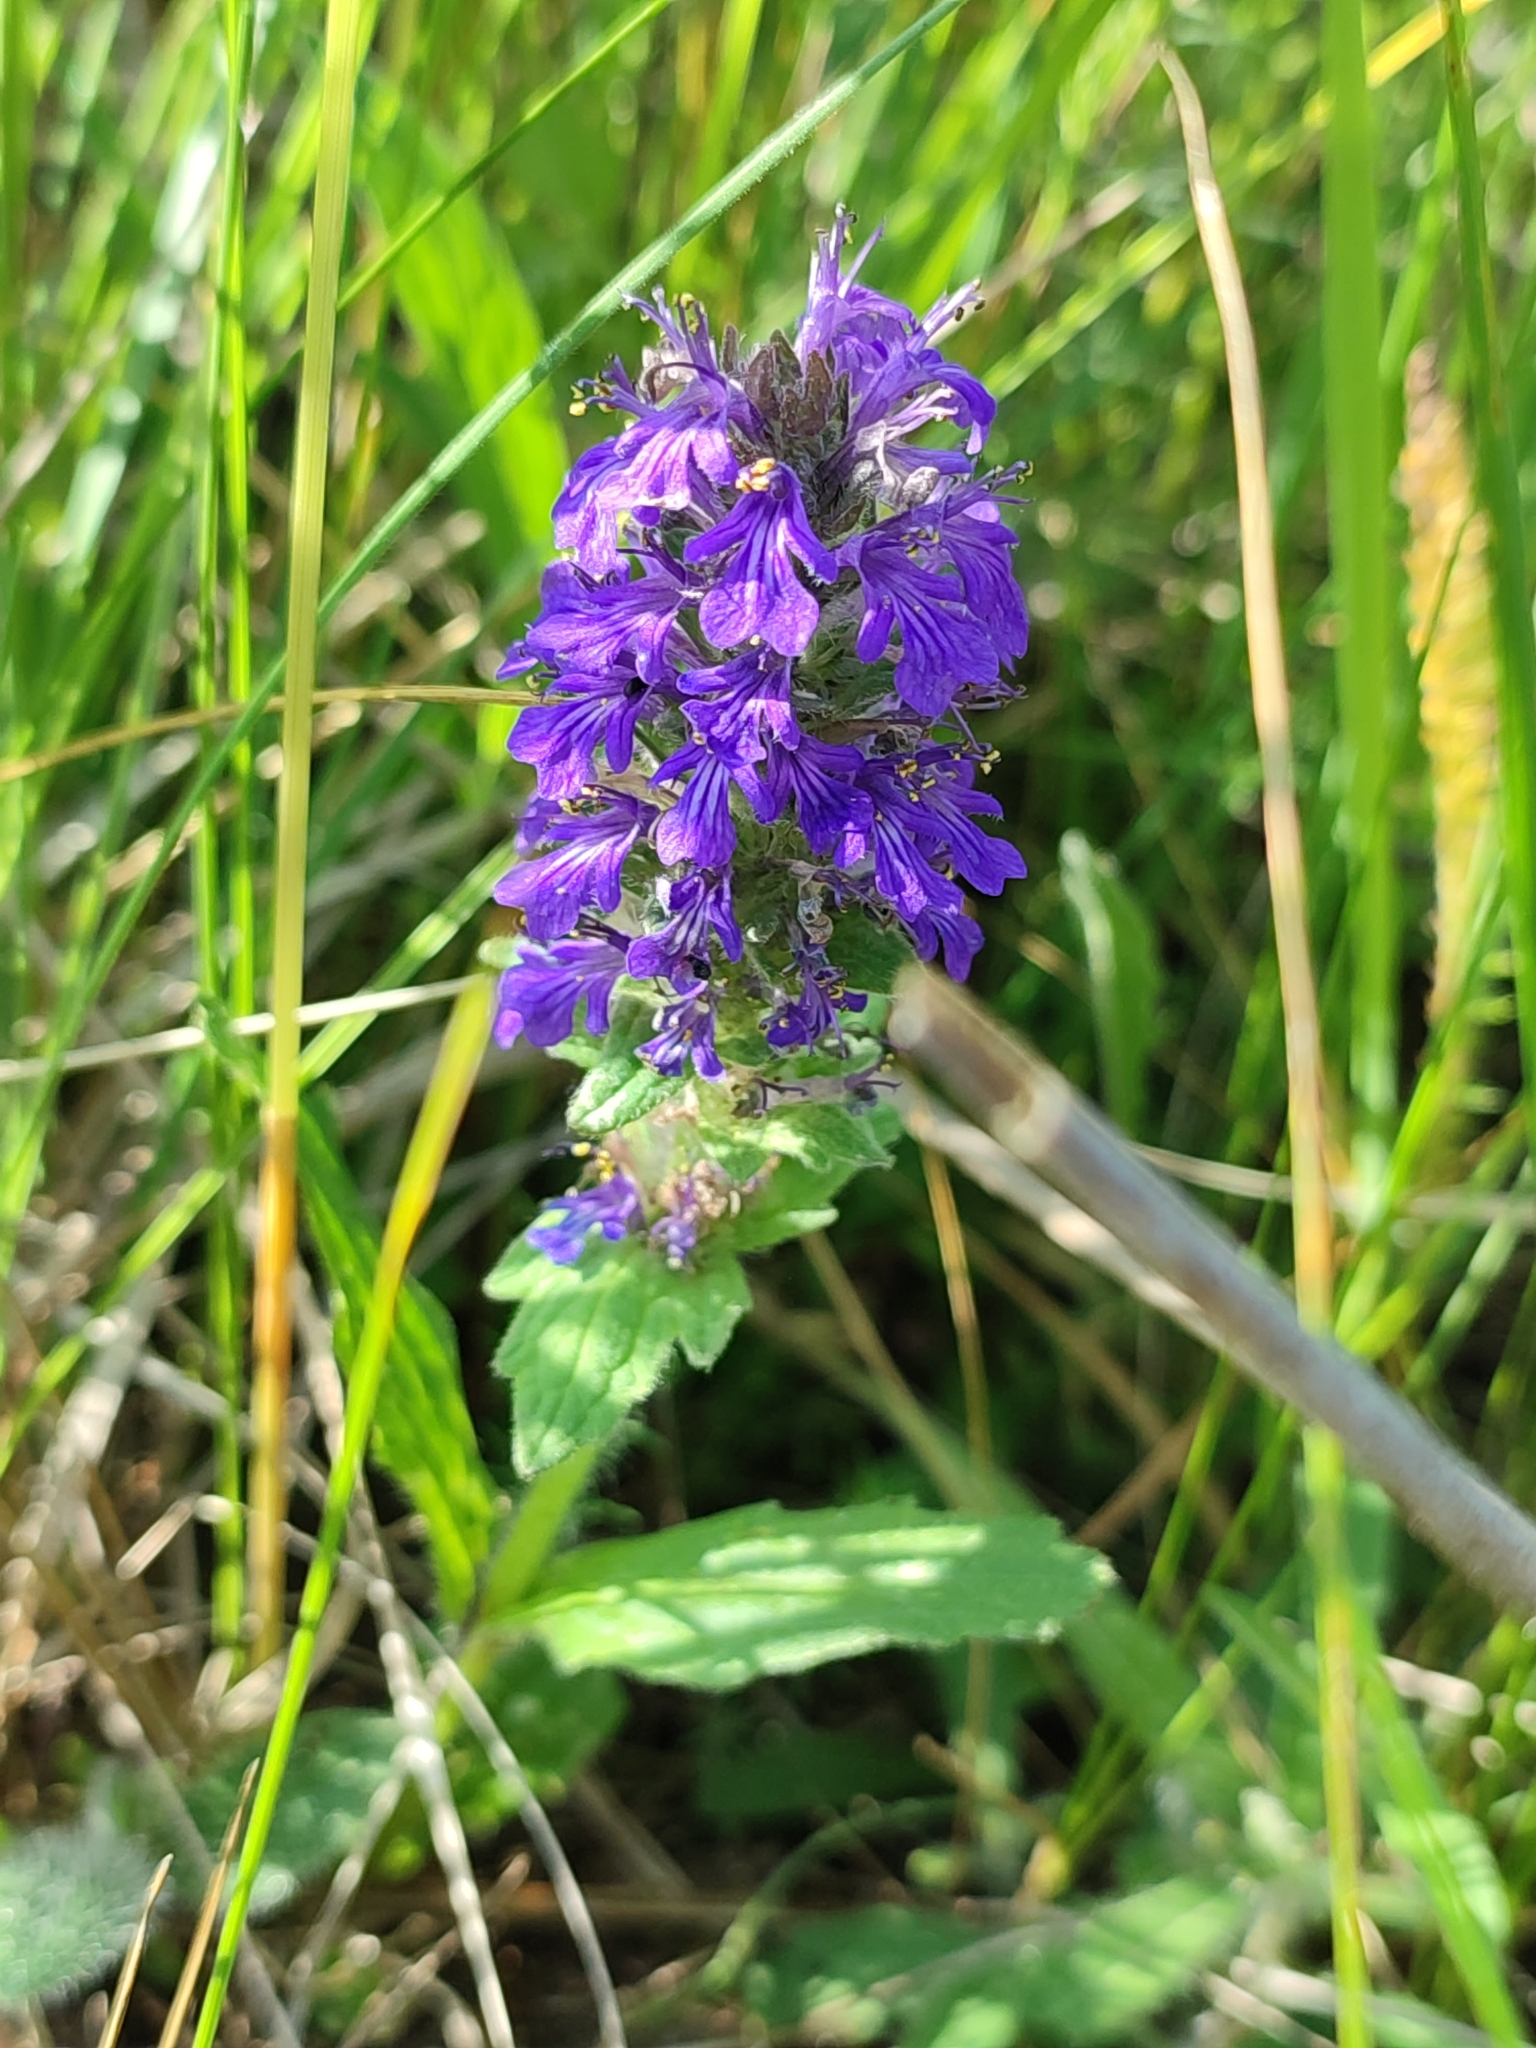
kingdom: Plantae
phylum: Tracheophyta
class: Magnoliopsida
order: Lamiales
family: Lamiaceae
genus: Ajuga
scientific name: Ajuga genevensis
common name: Blue bugle
